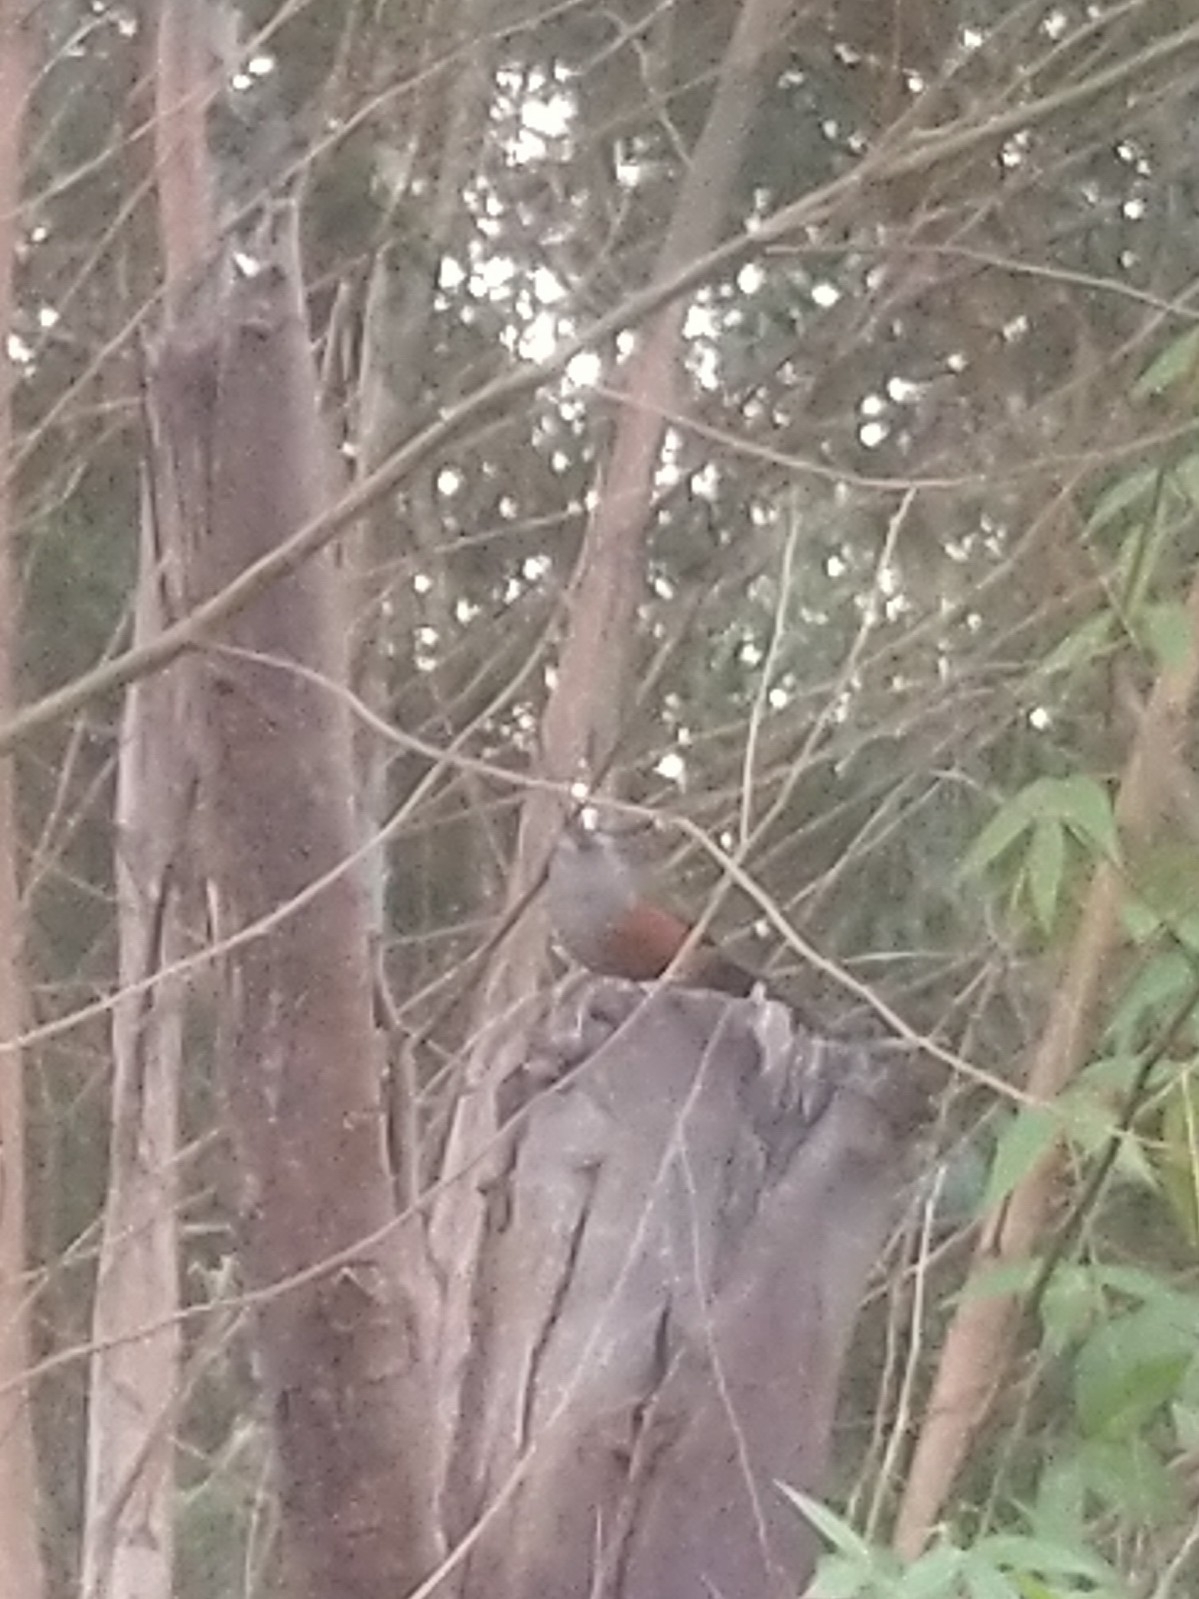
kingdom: Animalia
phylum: Chordata
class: Aves
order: Passeriformes
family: Leiothrichidae
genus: Trochalopteron
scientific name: Trochalopteron fairbanki
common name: Kerala laughingthrush
